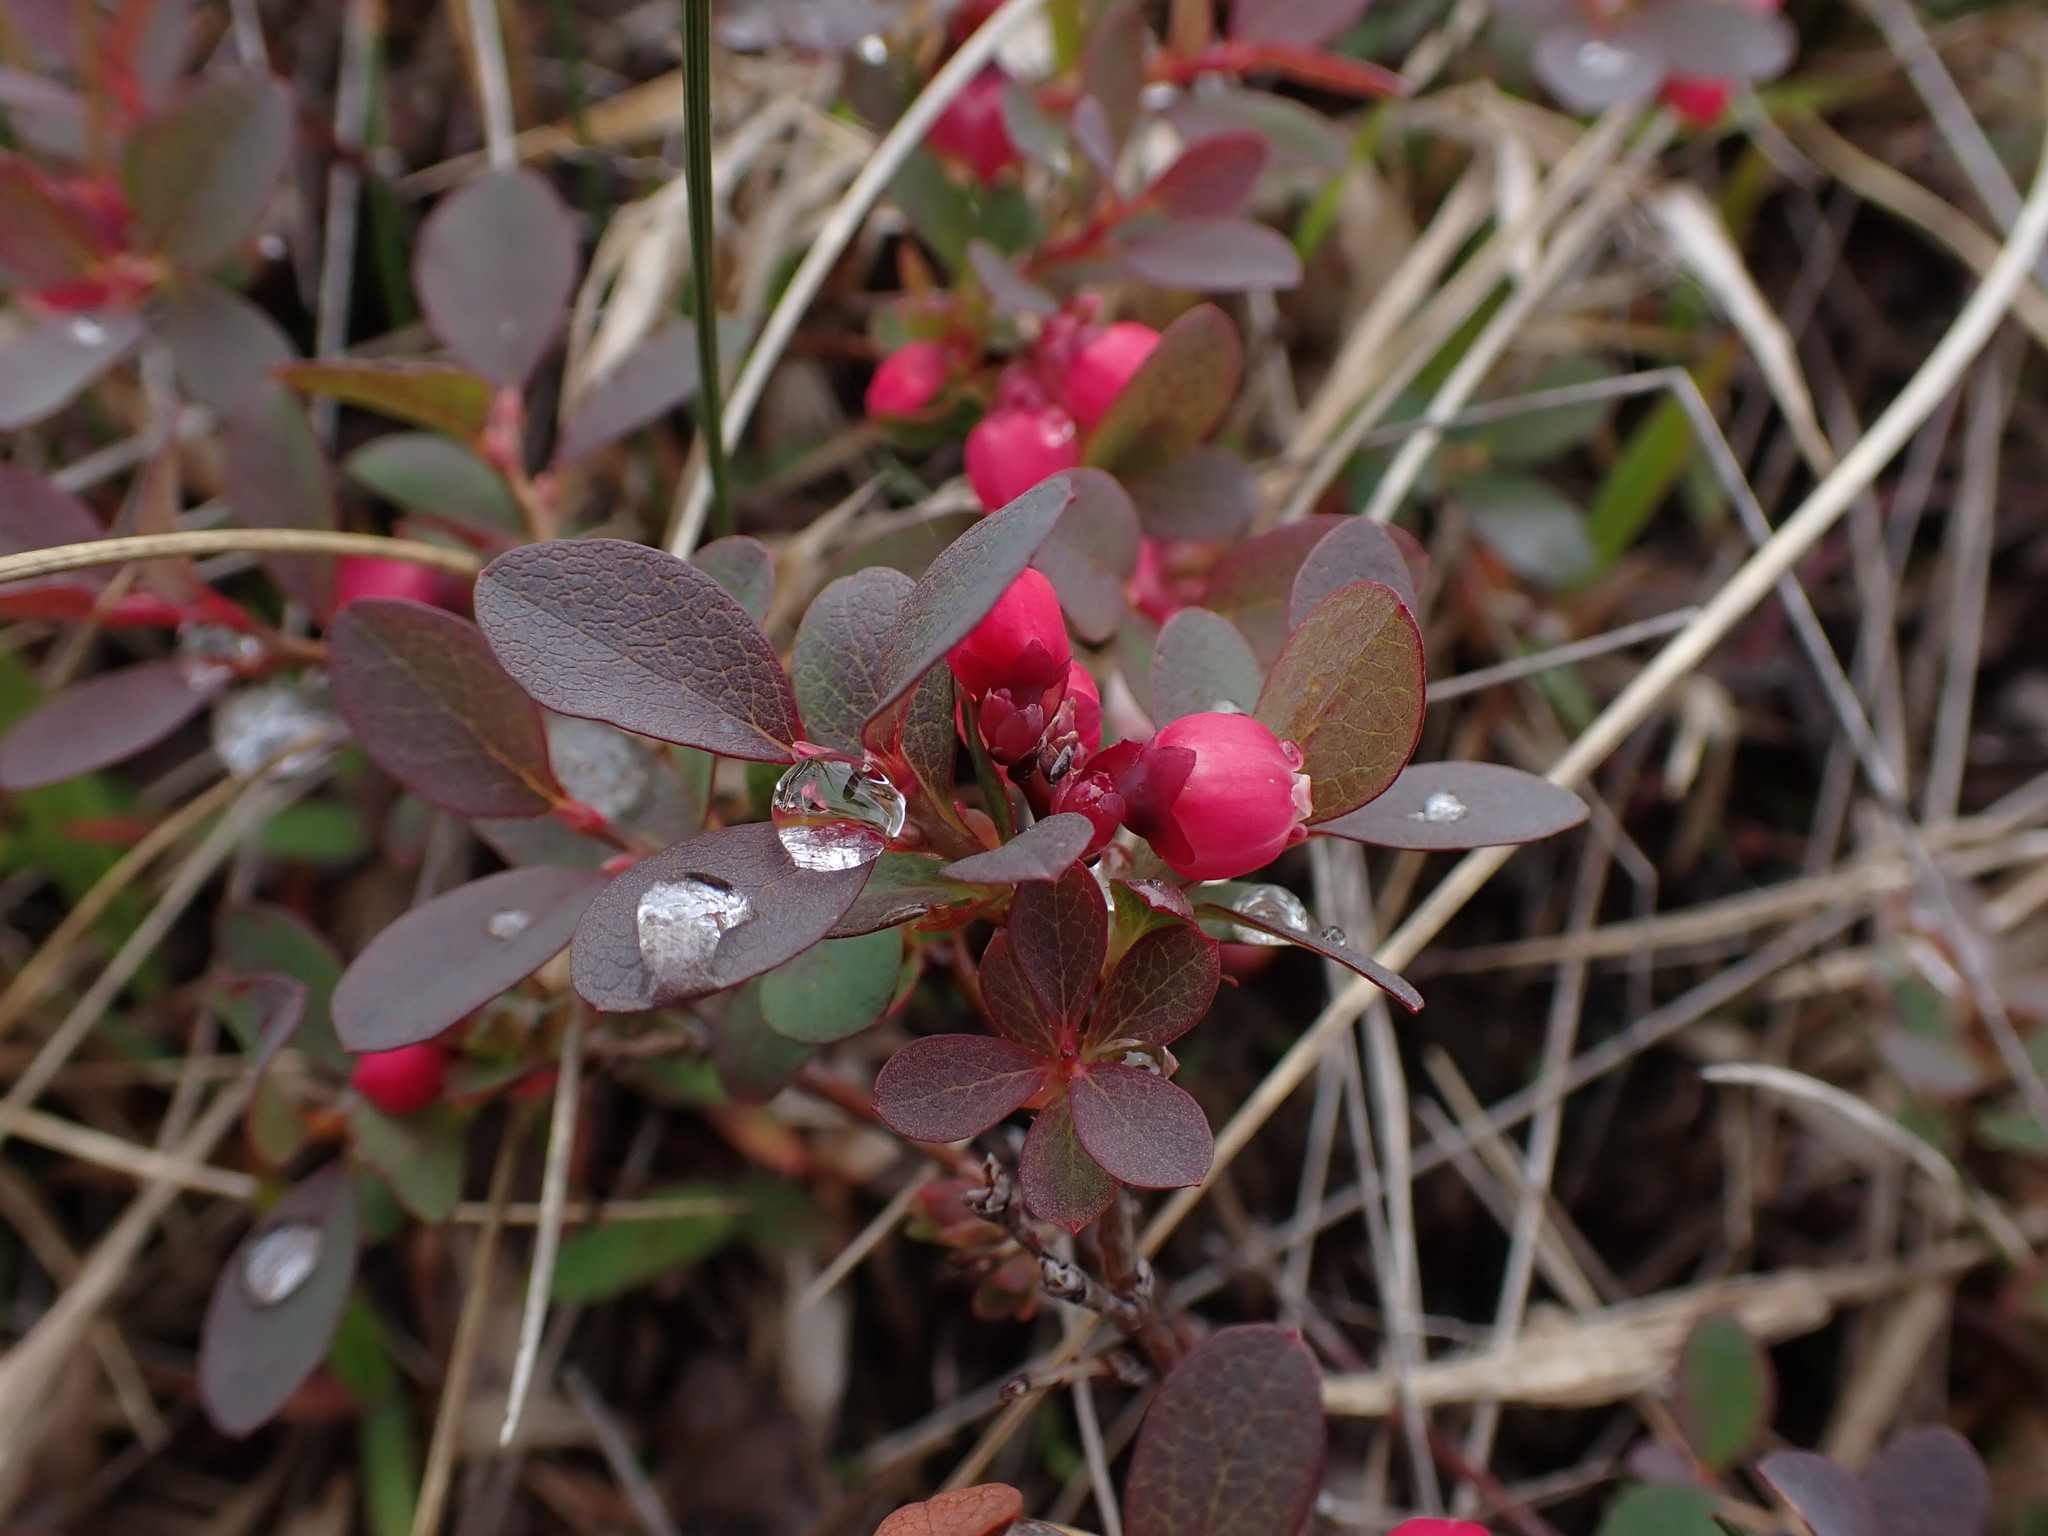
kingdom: Plantae
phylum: Tracheophyta
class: Magnoliopsida
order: Ericales
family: Ericaceae
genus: Vaccinium
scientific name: Vaccinium uliginosum
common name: Bog bilberry
